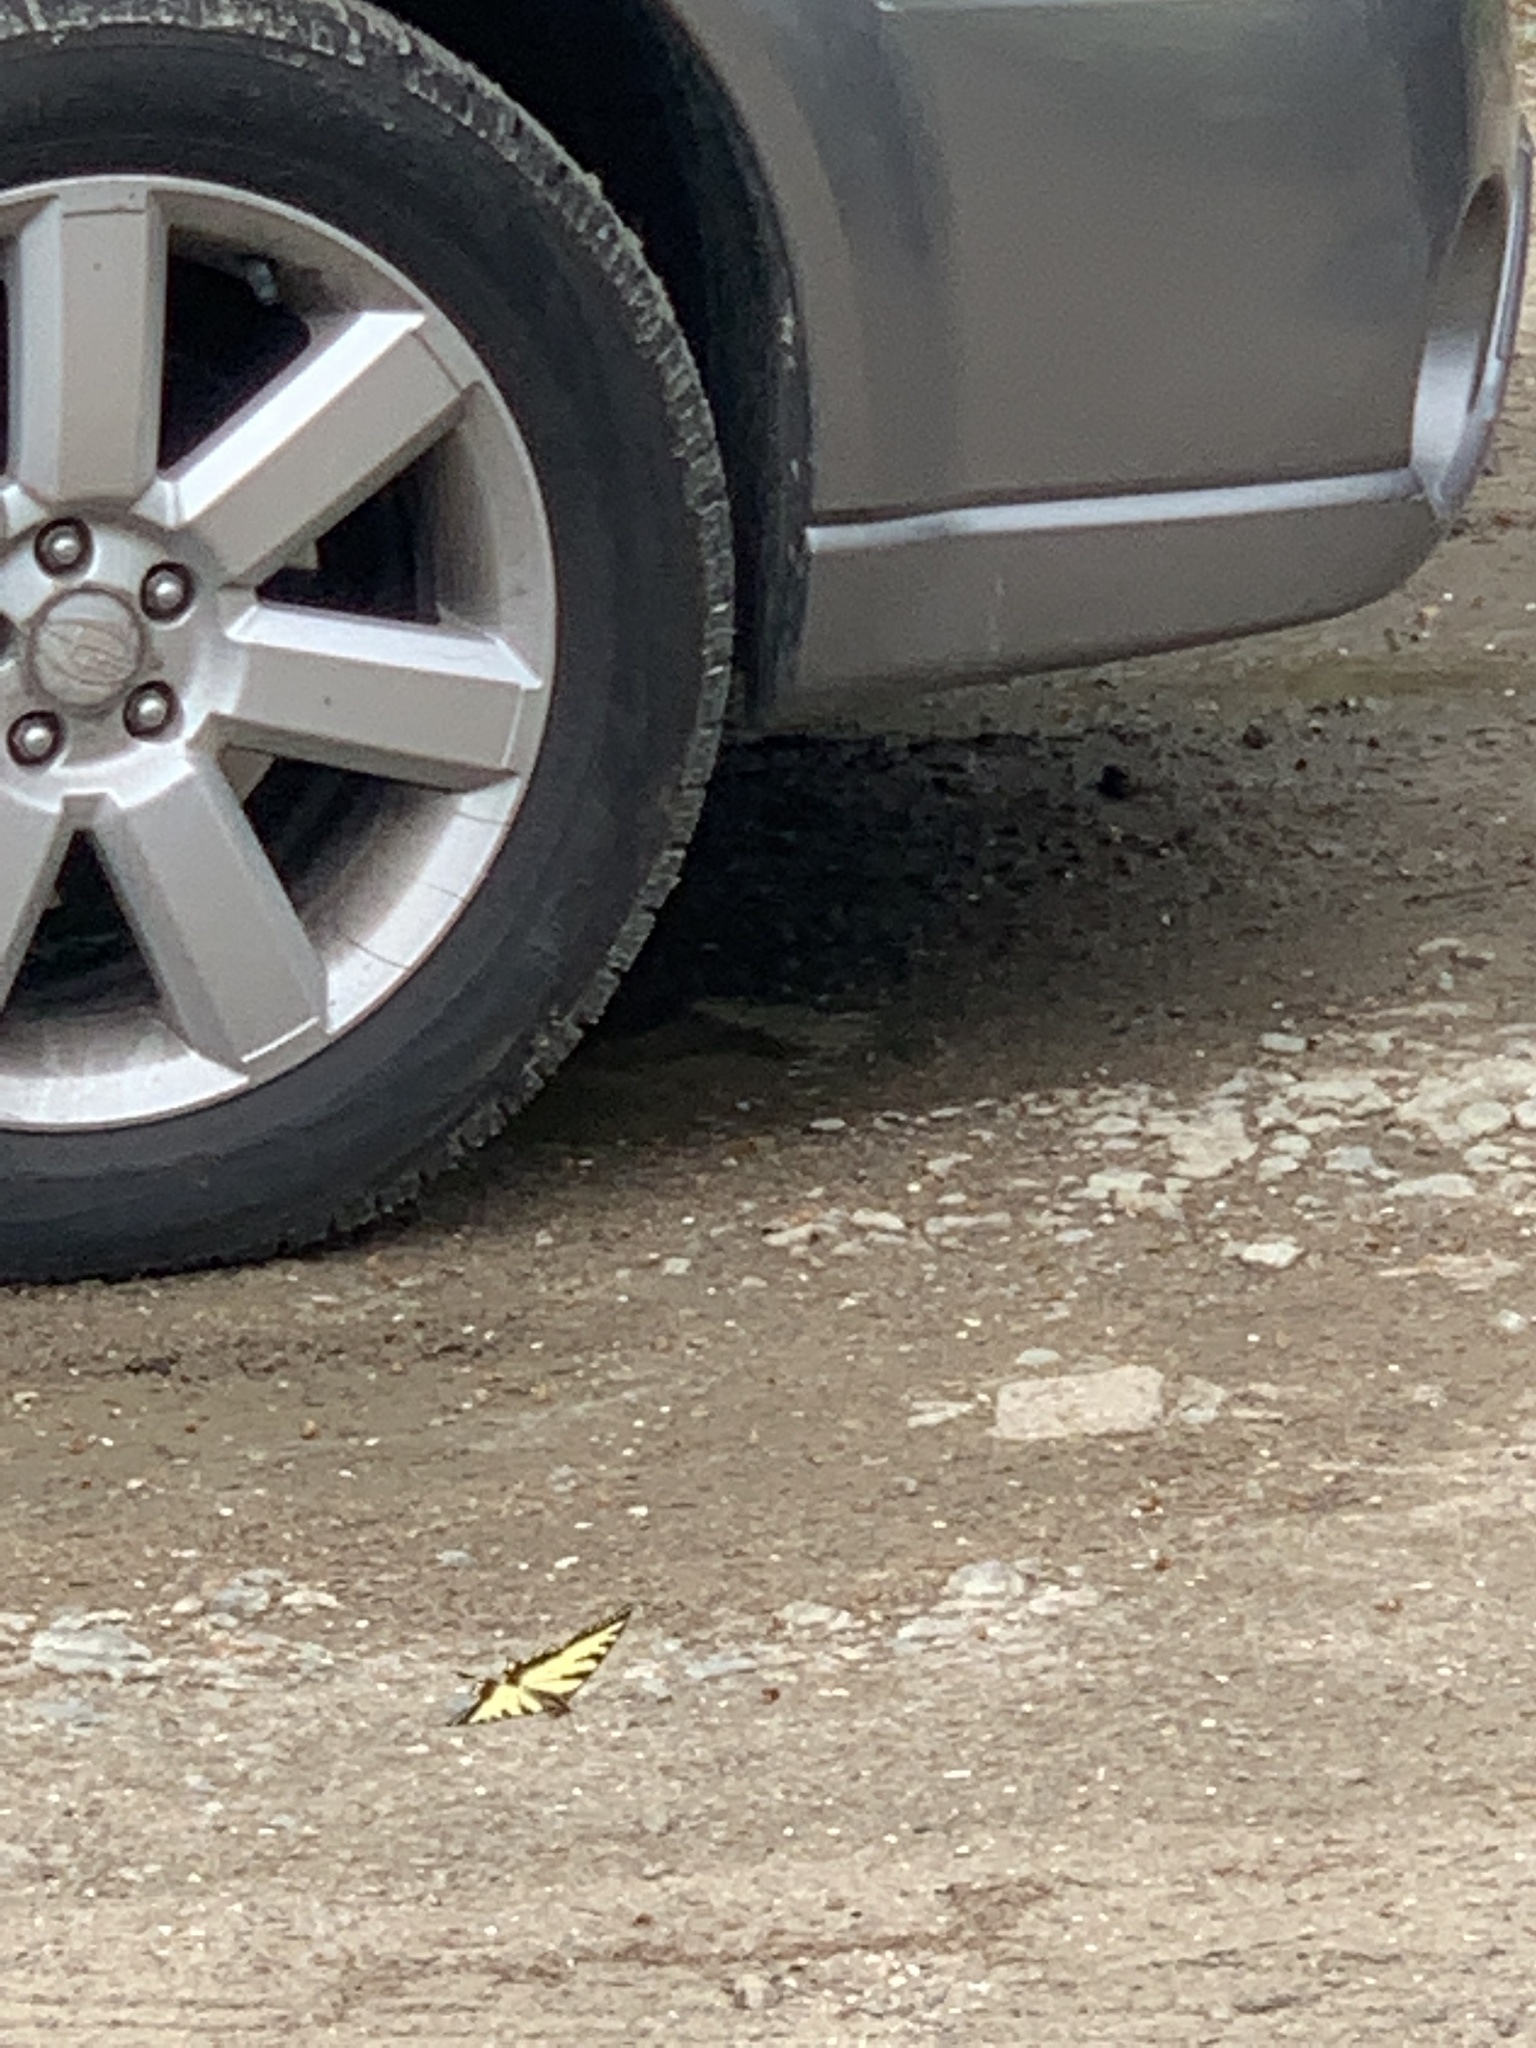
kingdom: Animalia
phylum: Arthropoda
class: Insecta
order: Lepidoptera
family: Papilionidae
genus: Papilio
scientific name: Papilio canadensis
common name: Canadian tiger swallowtail
